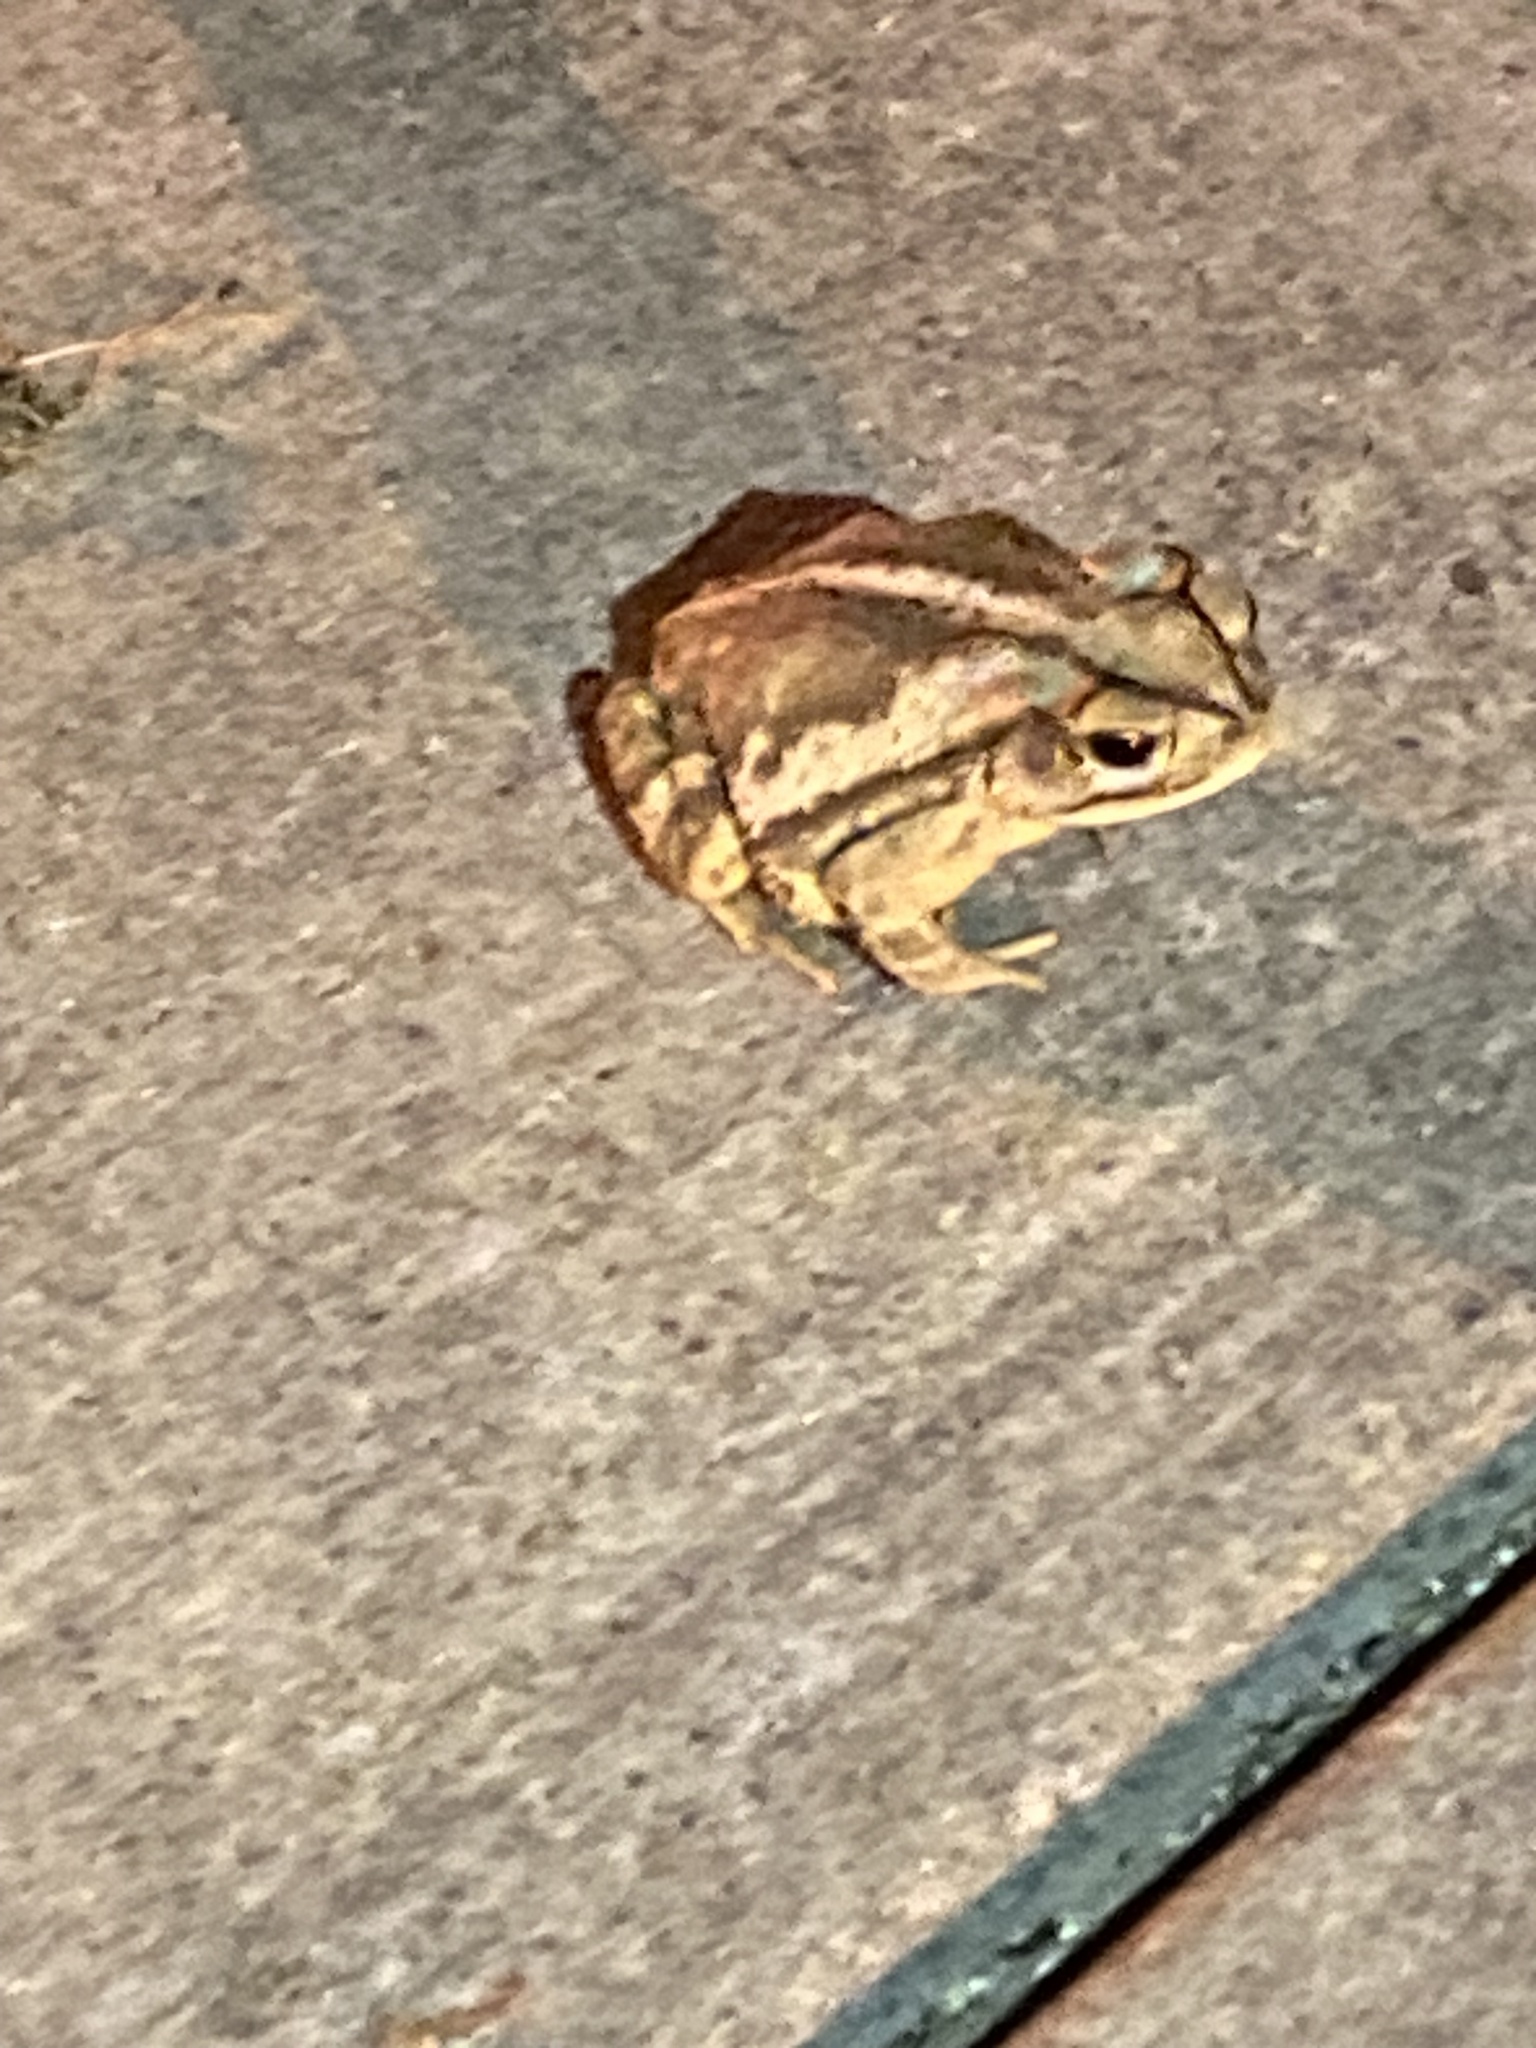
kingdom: Animalia
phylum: Chordata
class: Amphibia
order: Anura
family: Bufonidae
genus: Incilius
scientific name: Incilius nebulifer
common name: Gulf coast toad
